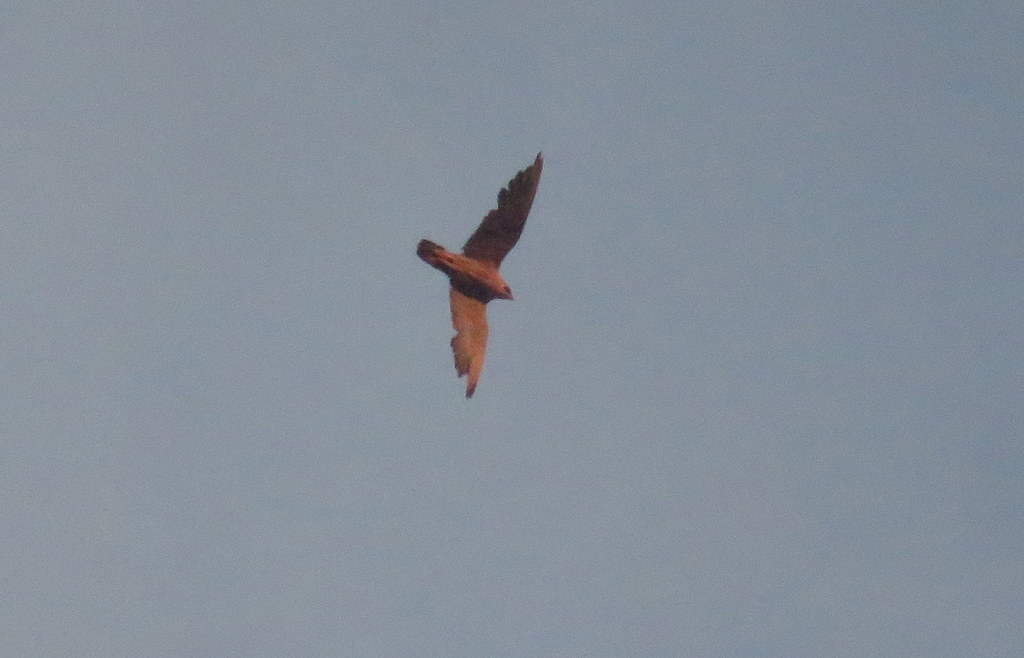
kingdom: Animalia
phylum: Chordata
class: Aves
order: Falconiformes
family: Falconidae
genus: Falco
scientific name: Falco peregrinus
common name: Peregrine falcon
